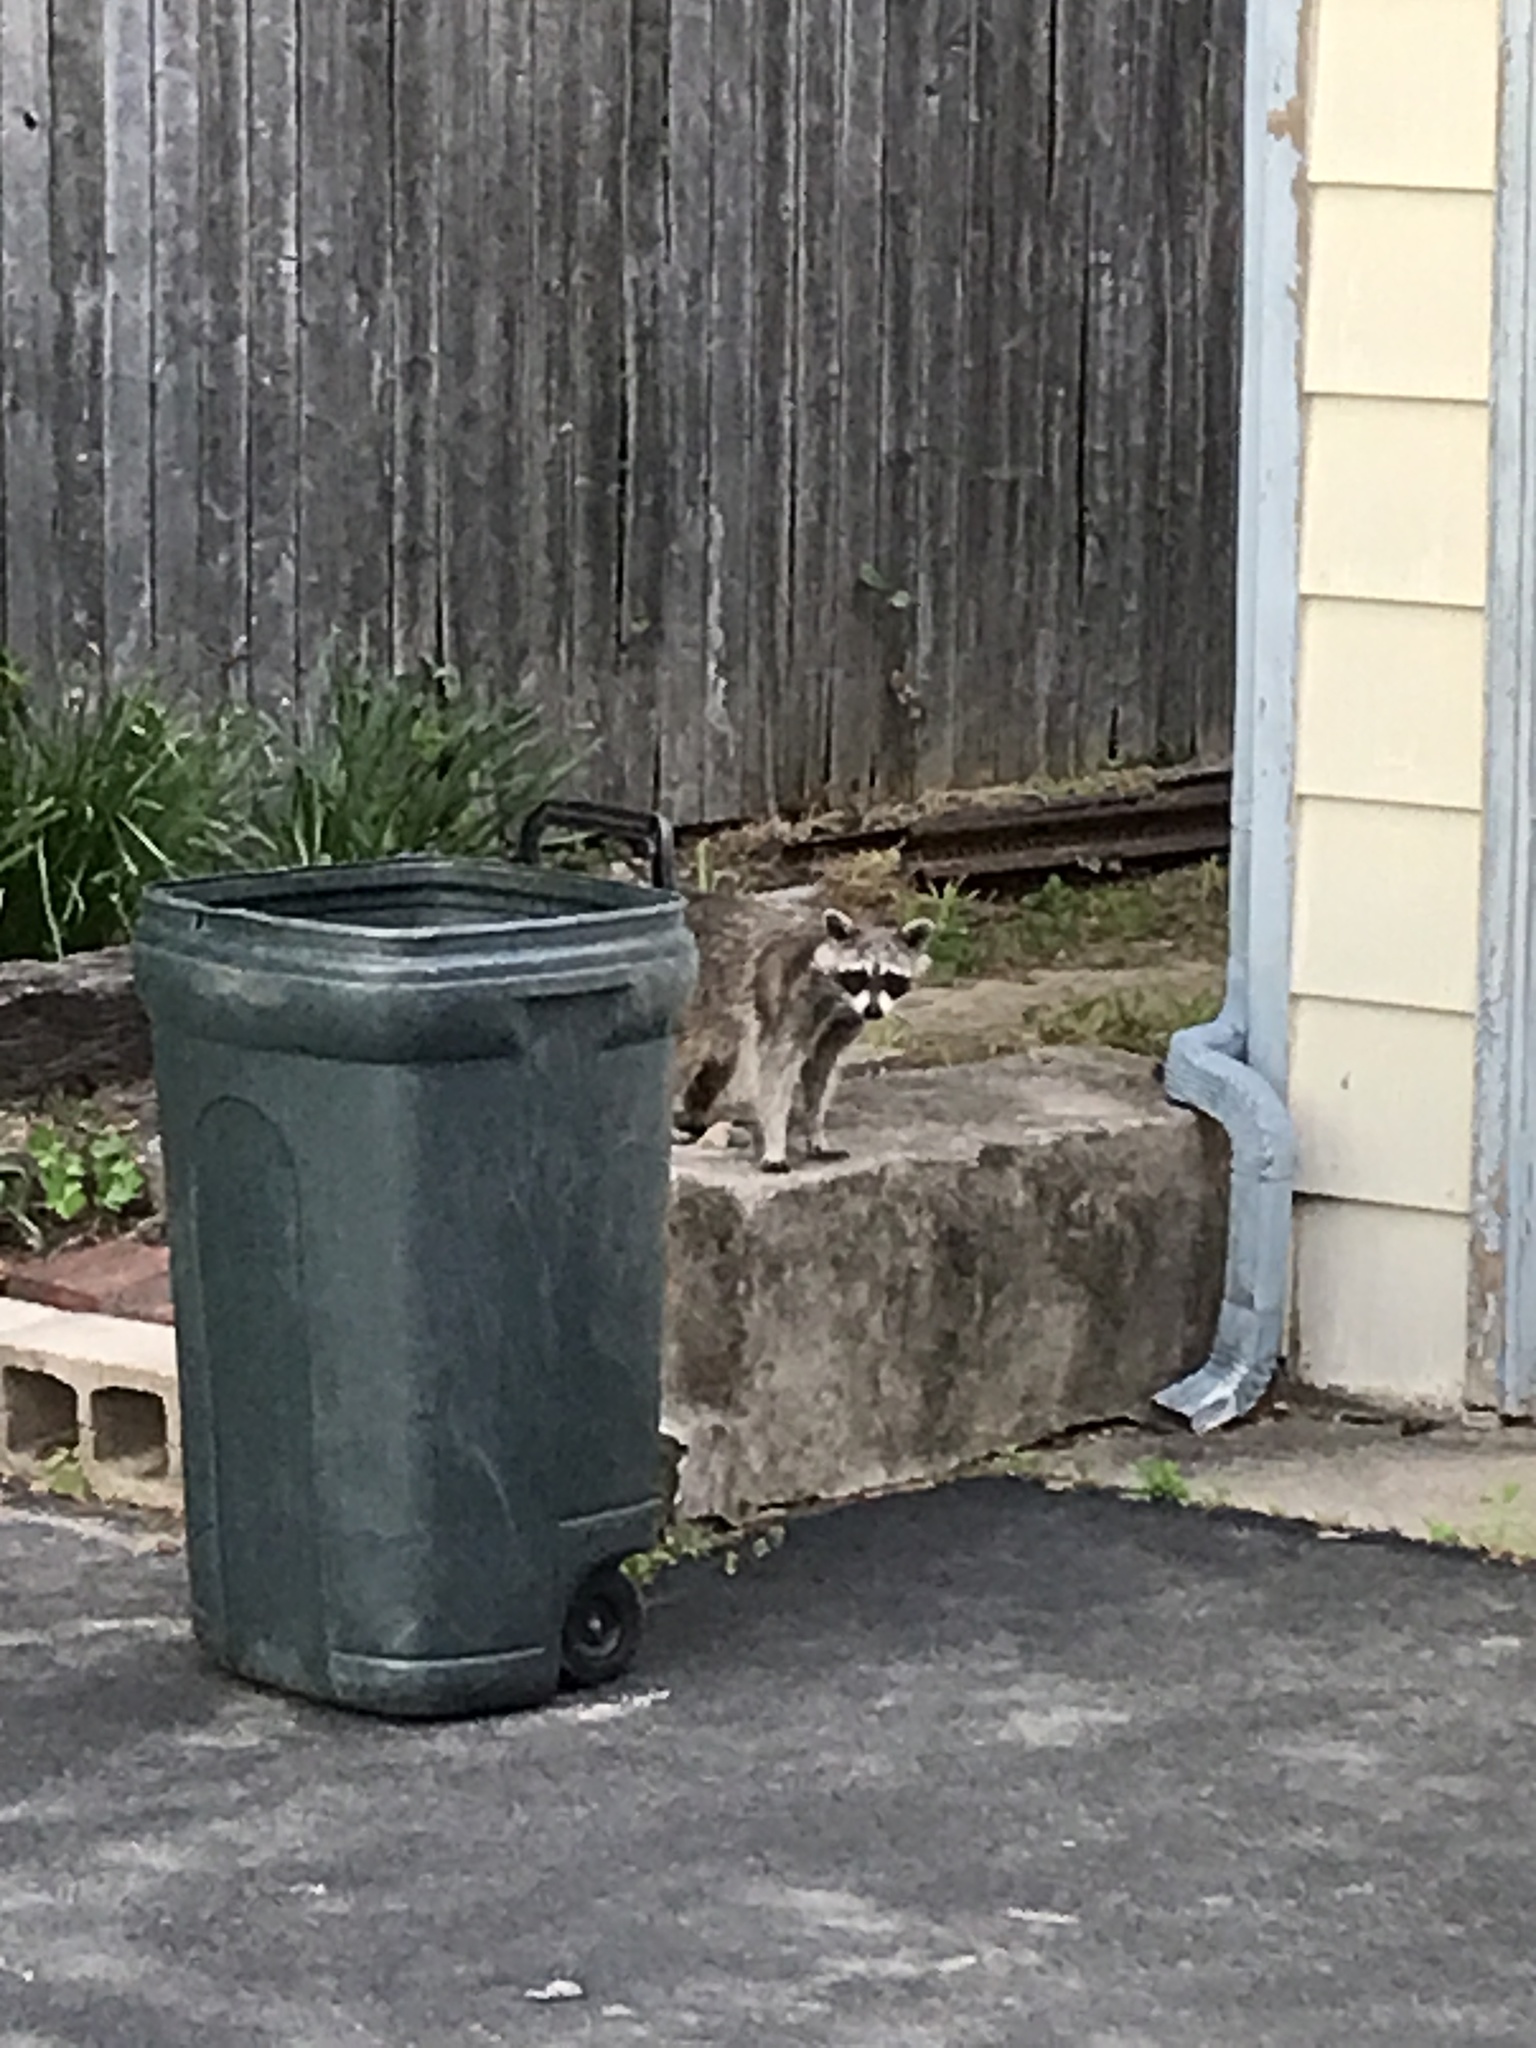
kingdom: Animalia
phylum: Chordata
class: Mammalia
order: Carnivora
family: Procyonidae
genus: Procyon
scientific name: Procyon lotor
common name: Raccoon
